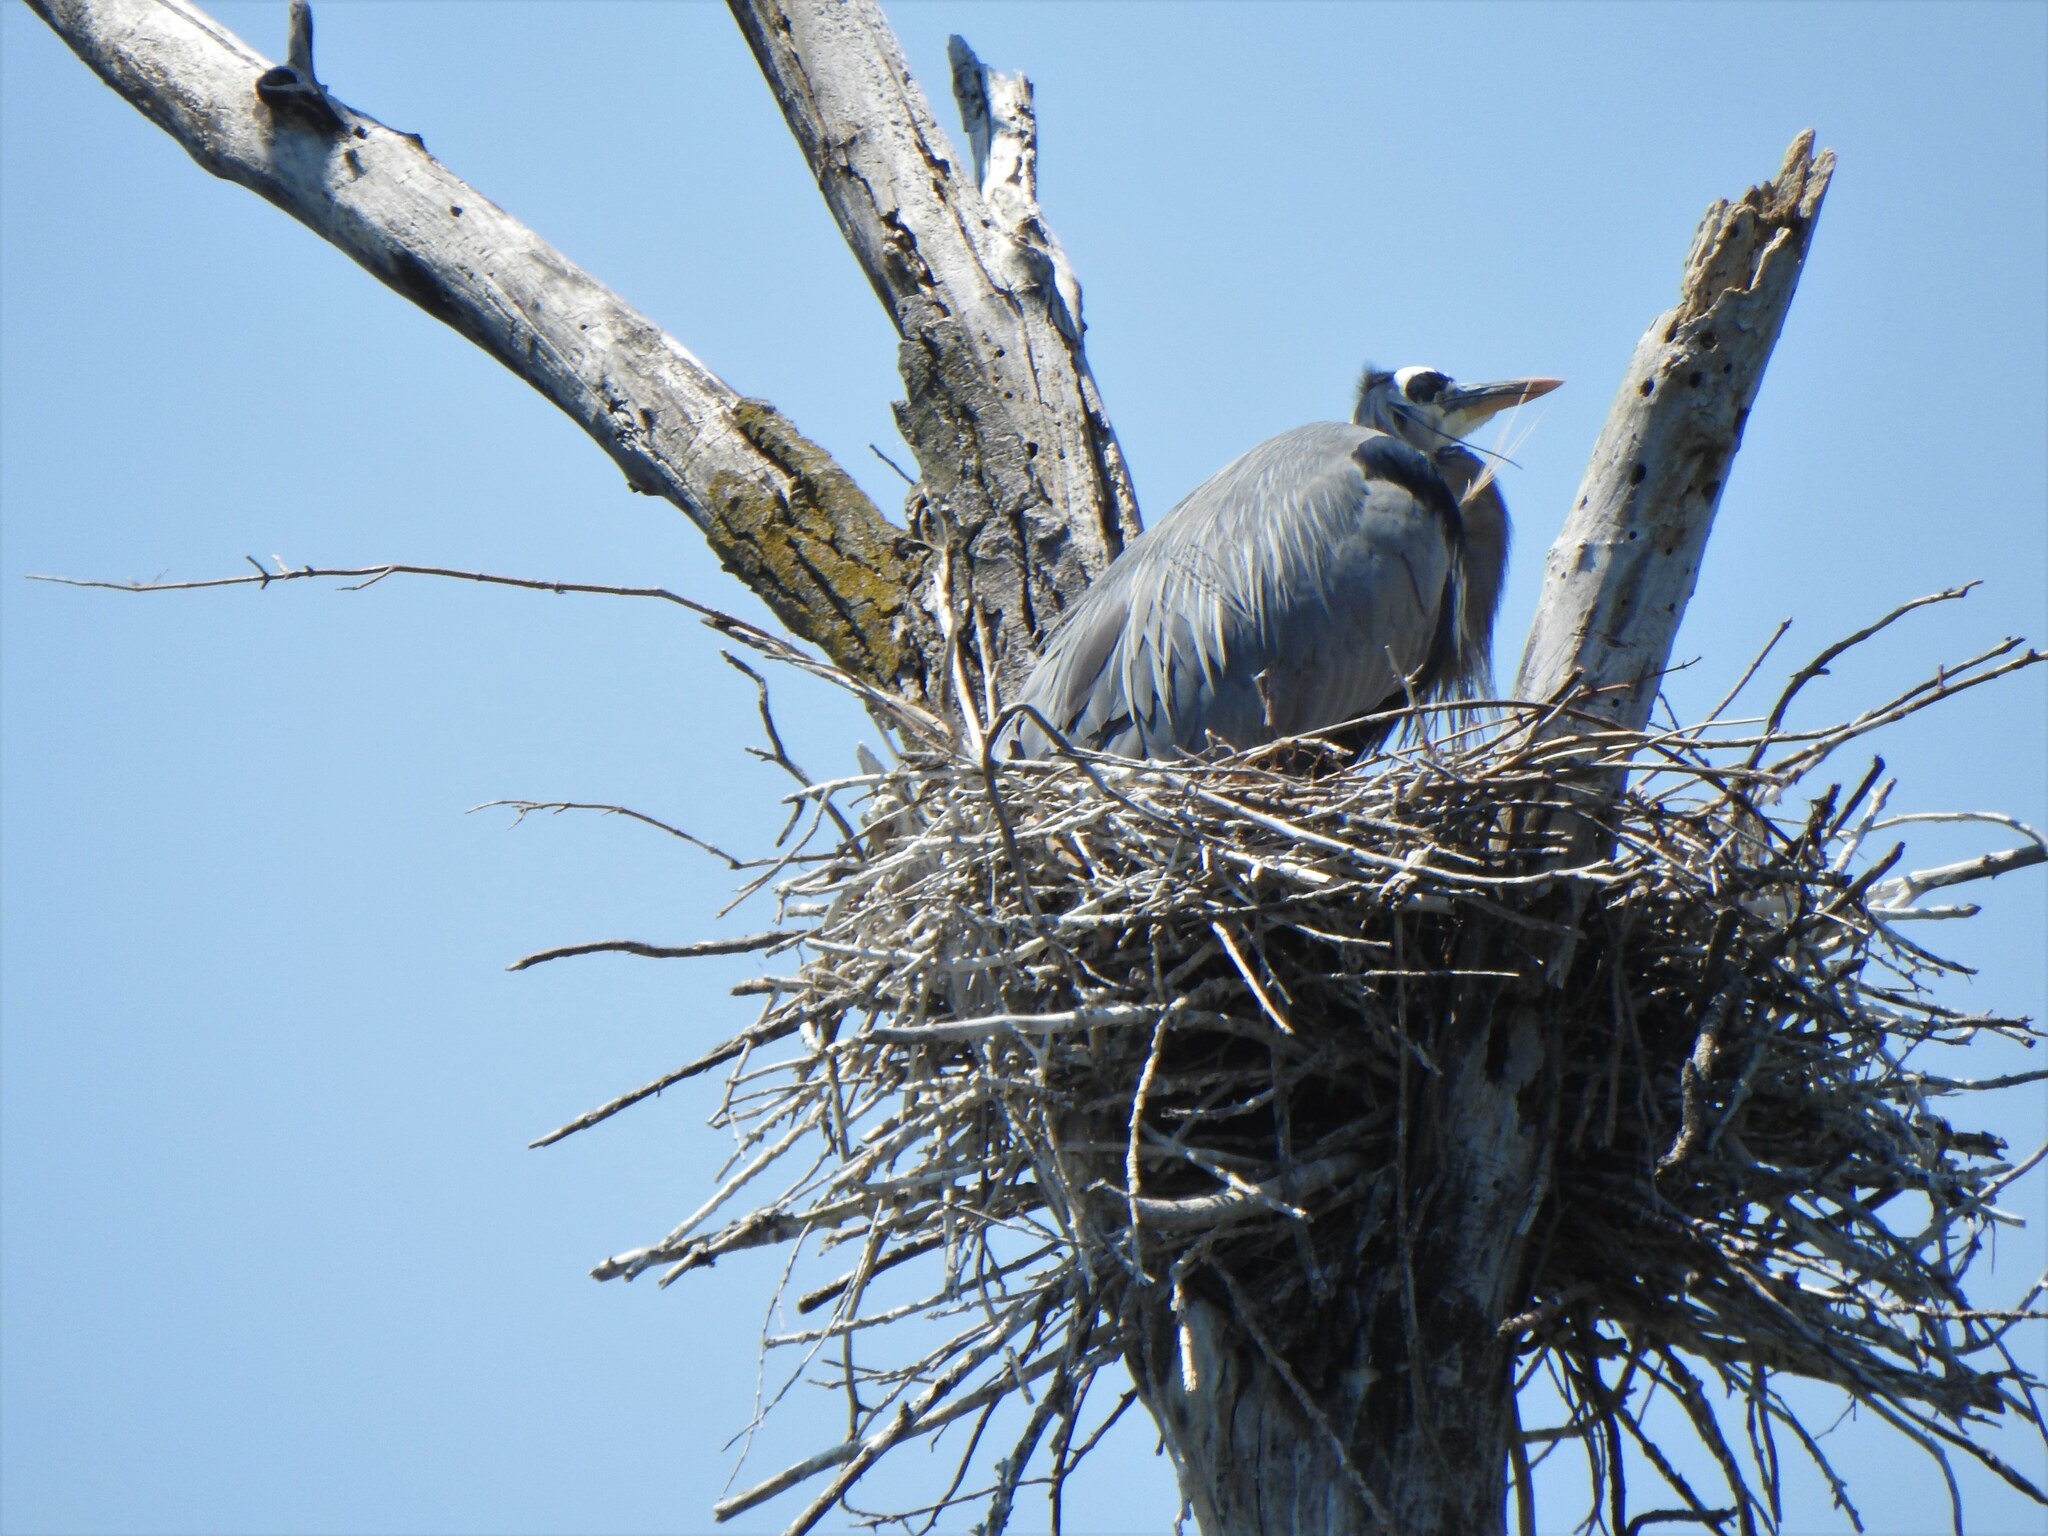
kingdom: Animalia
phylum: Chordata
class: Aves
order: Pelecaniformes
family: Ardeidae
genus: Ardea
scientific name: Ardea herodias
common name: Great blue heron
